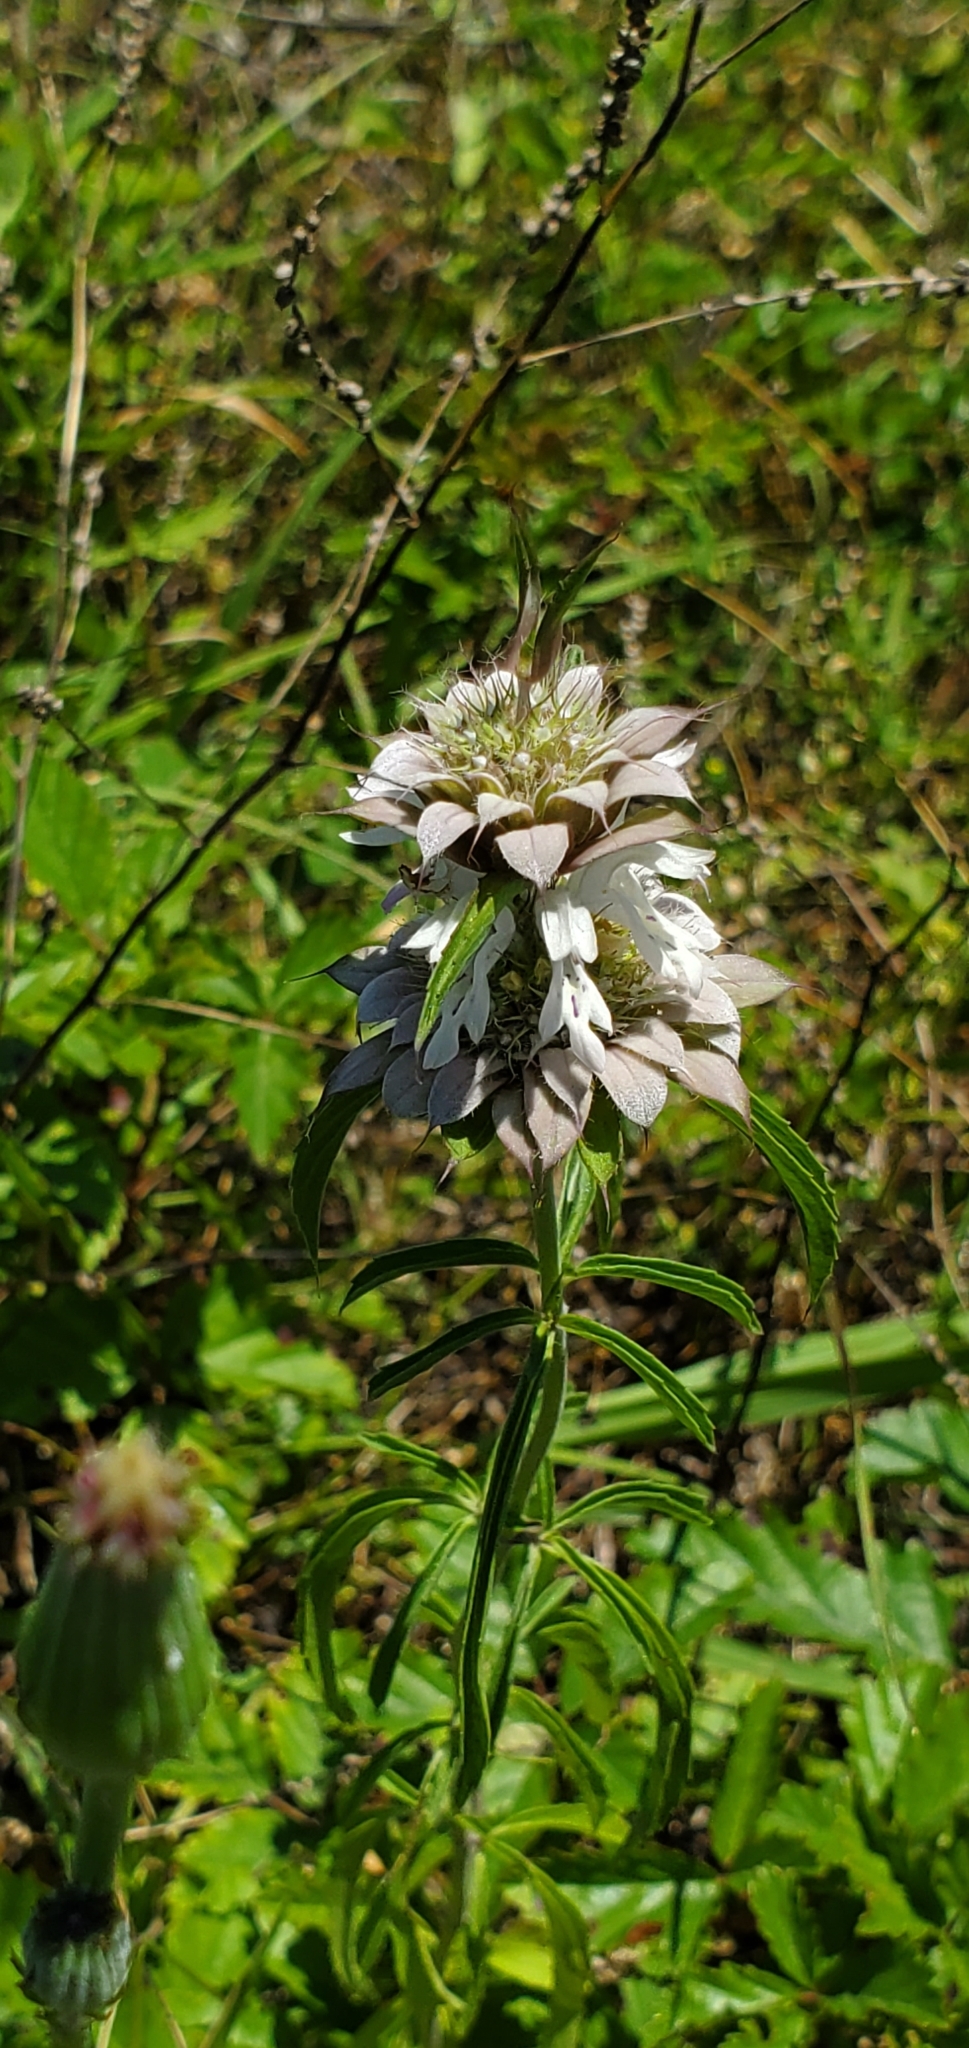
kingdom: Plantae
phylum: Tracheophyta
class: Magnoliopsida
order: Lamiales
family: Lamiaceae
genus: Monarda
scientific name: Monarda citriodora
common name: Lemon beebalm
